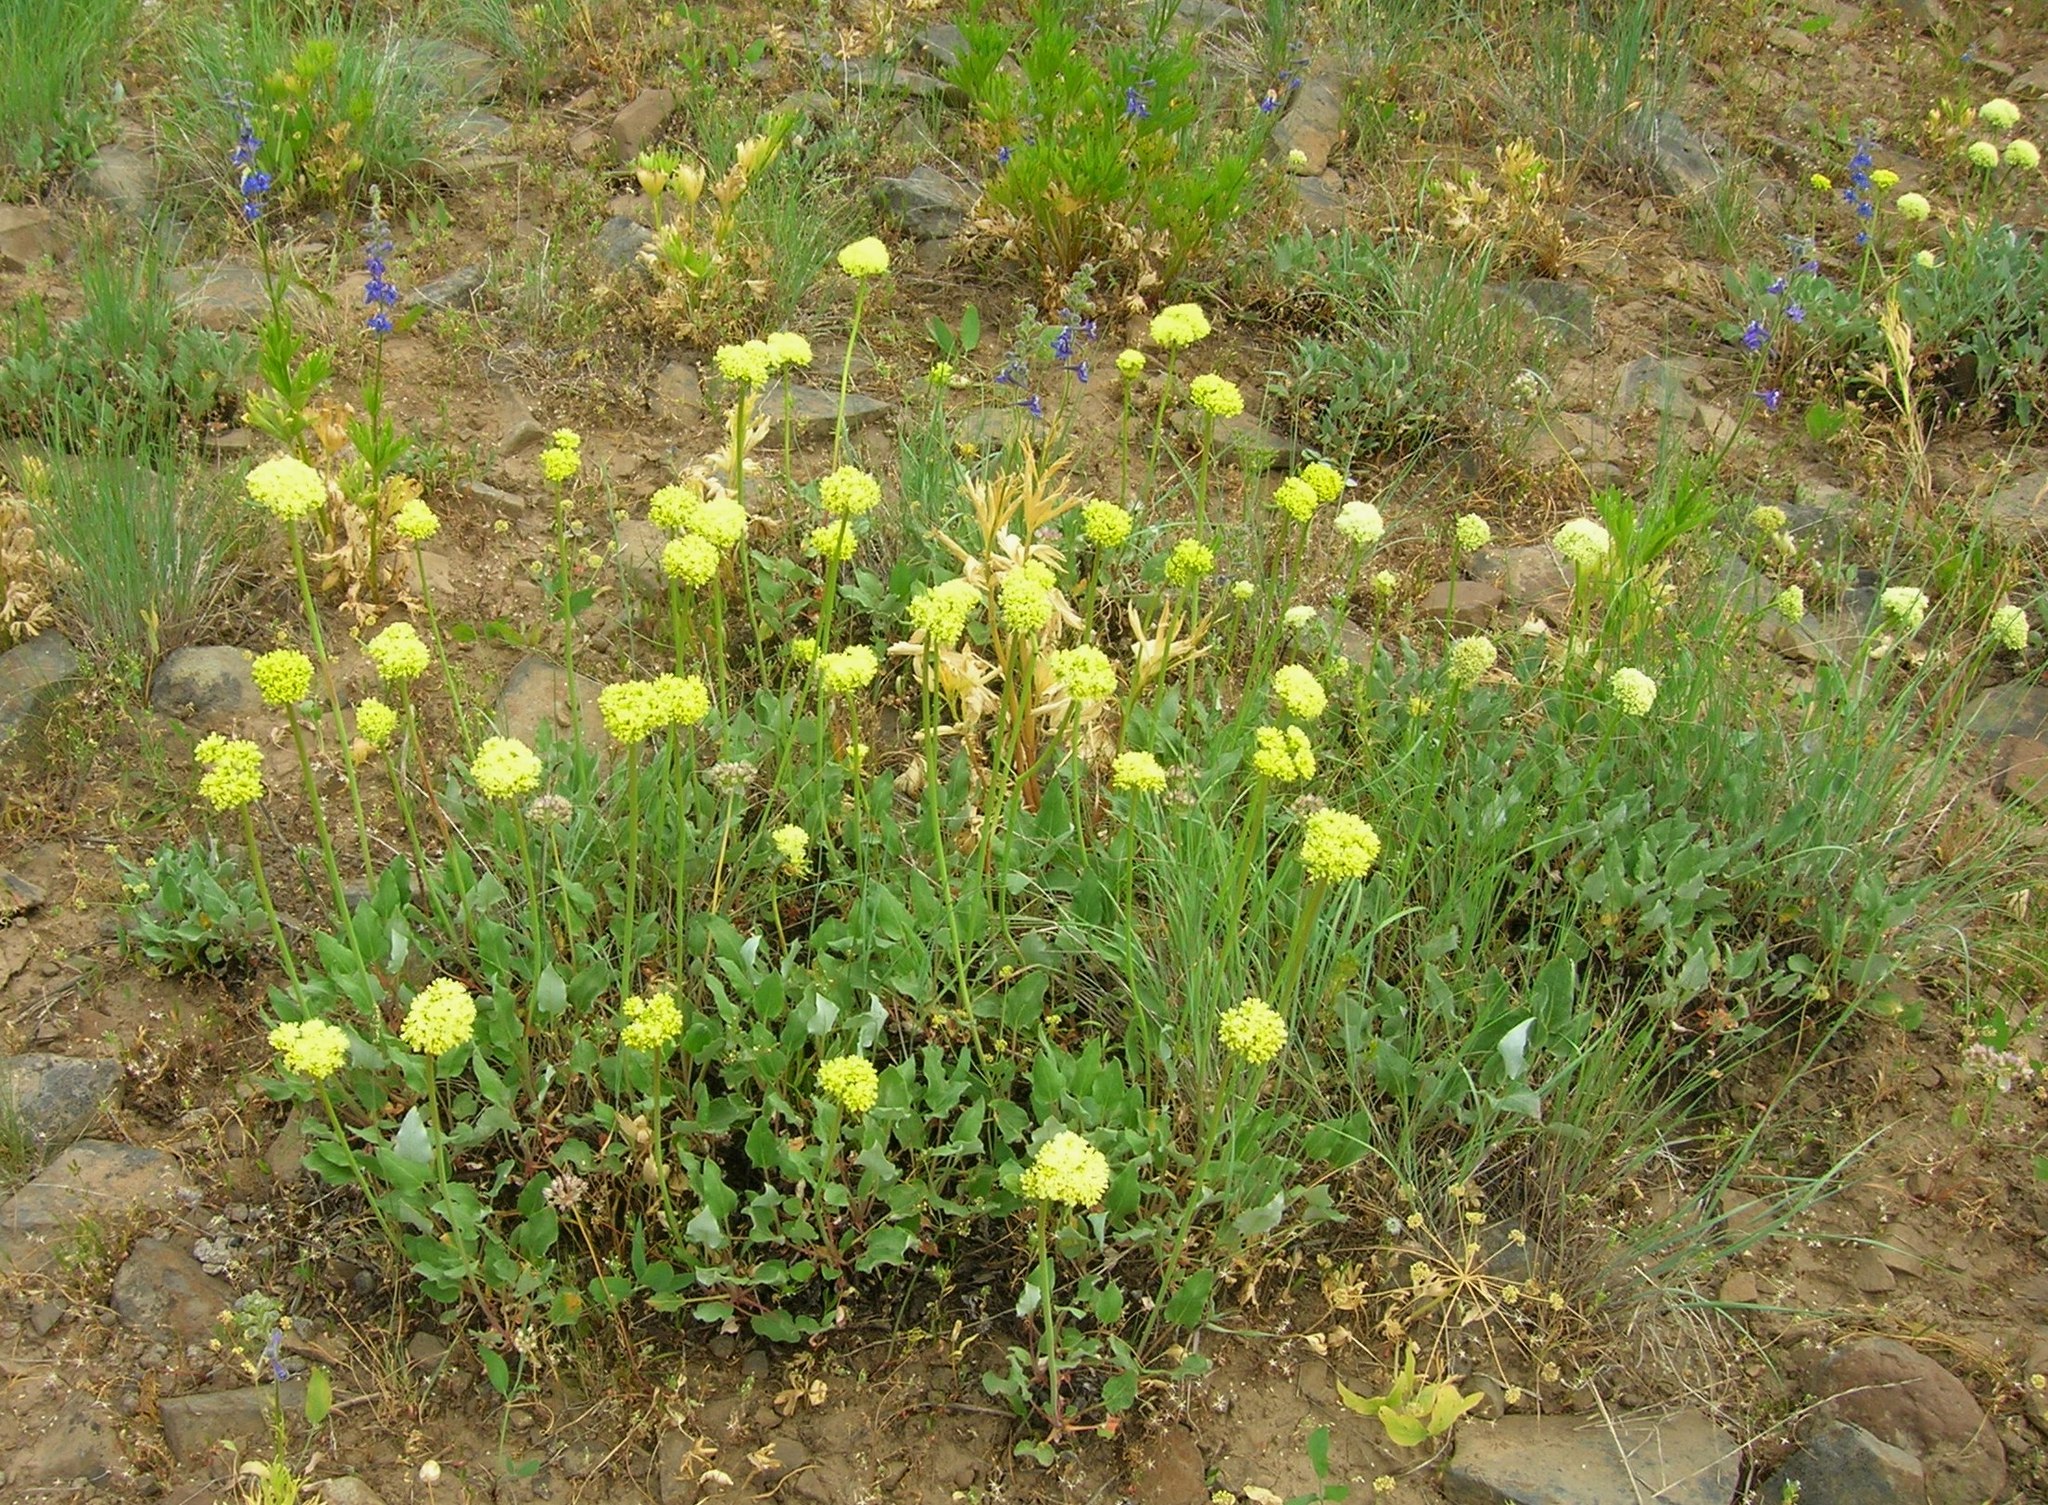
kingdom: Plantae
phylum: Tracheophyta
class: Magnoliopsida
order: Caryophyllales
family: Polygonaceae
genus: Eriogonum
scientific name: Eriogonum compositum
